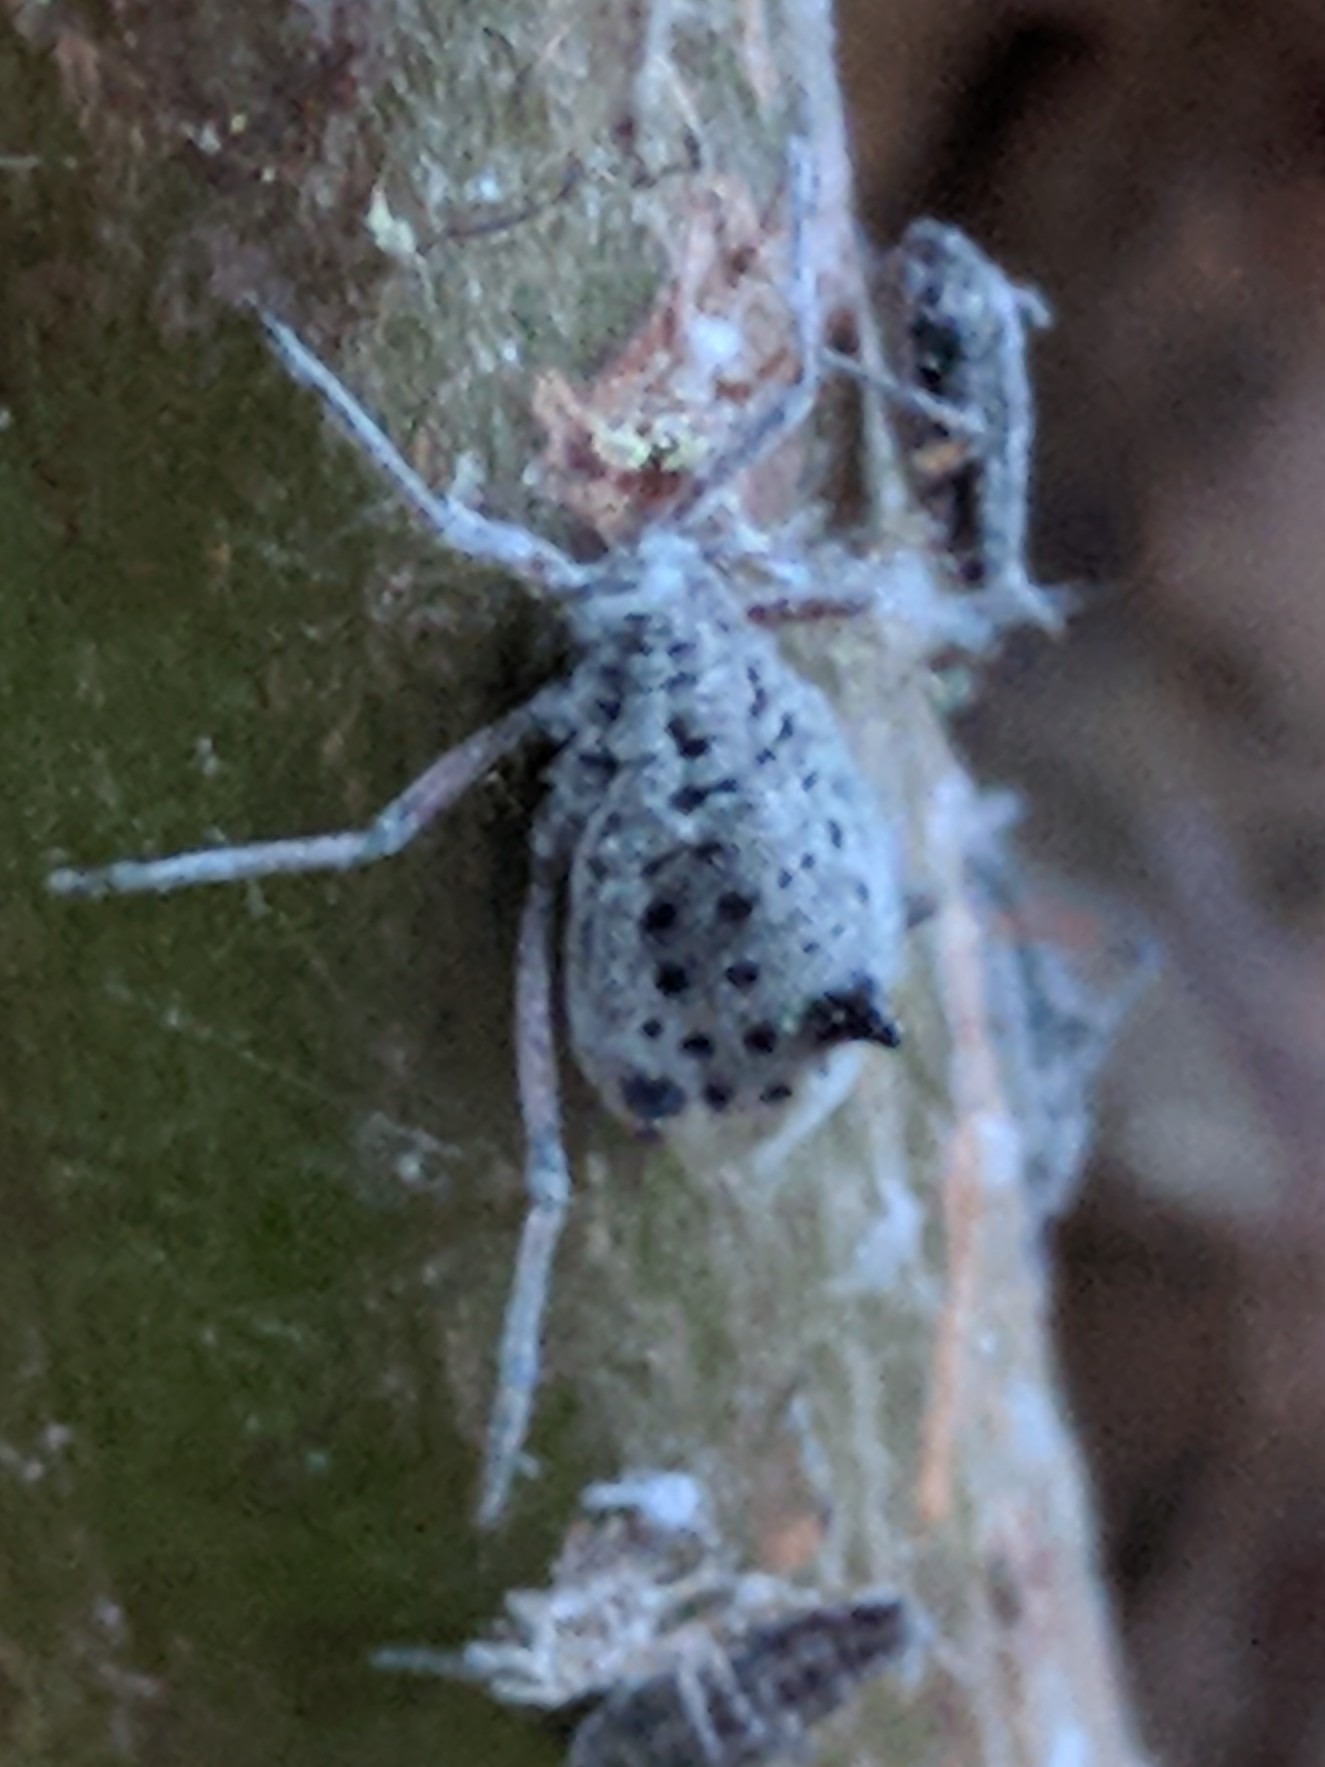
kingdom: Animalia
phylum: Arthropoda
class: Insecta
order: Hemiptera
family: Aphididae
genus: Tuberolachnus
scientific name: Tuberolachnus salignus
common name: Giant willow aphid
